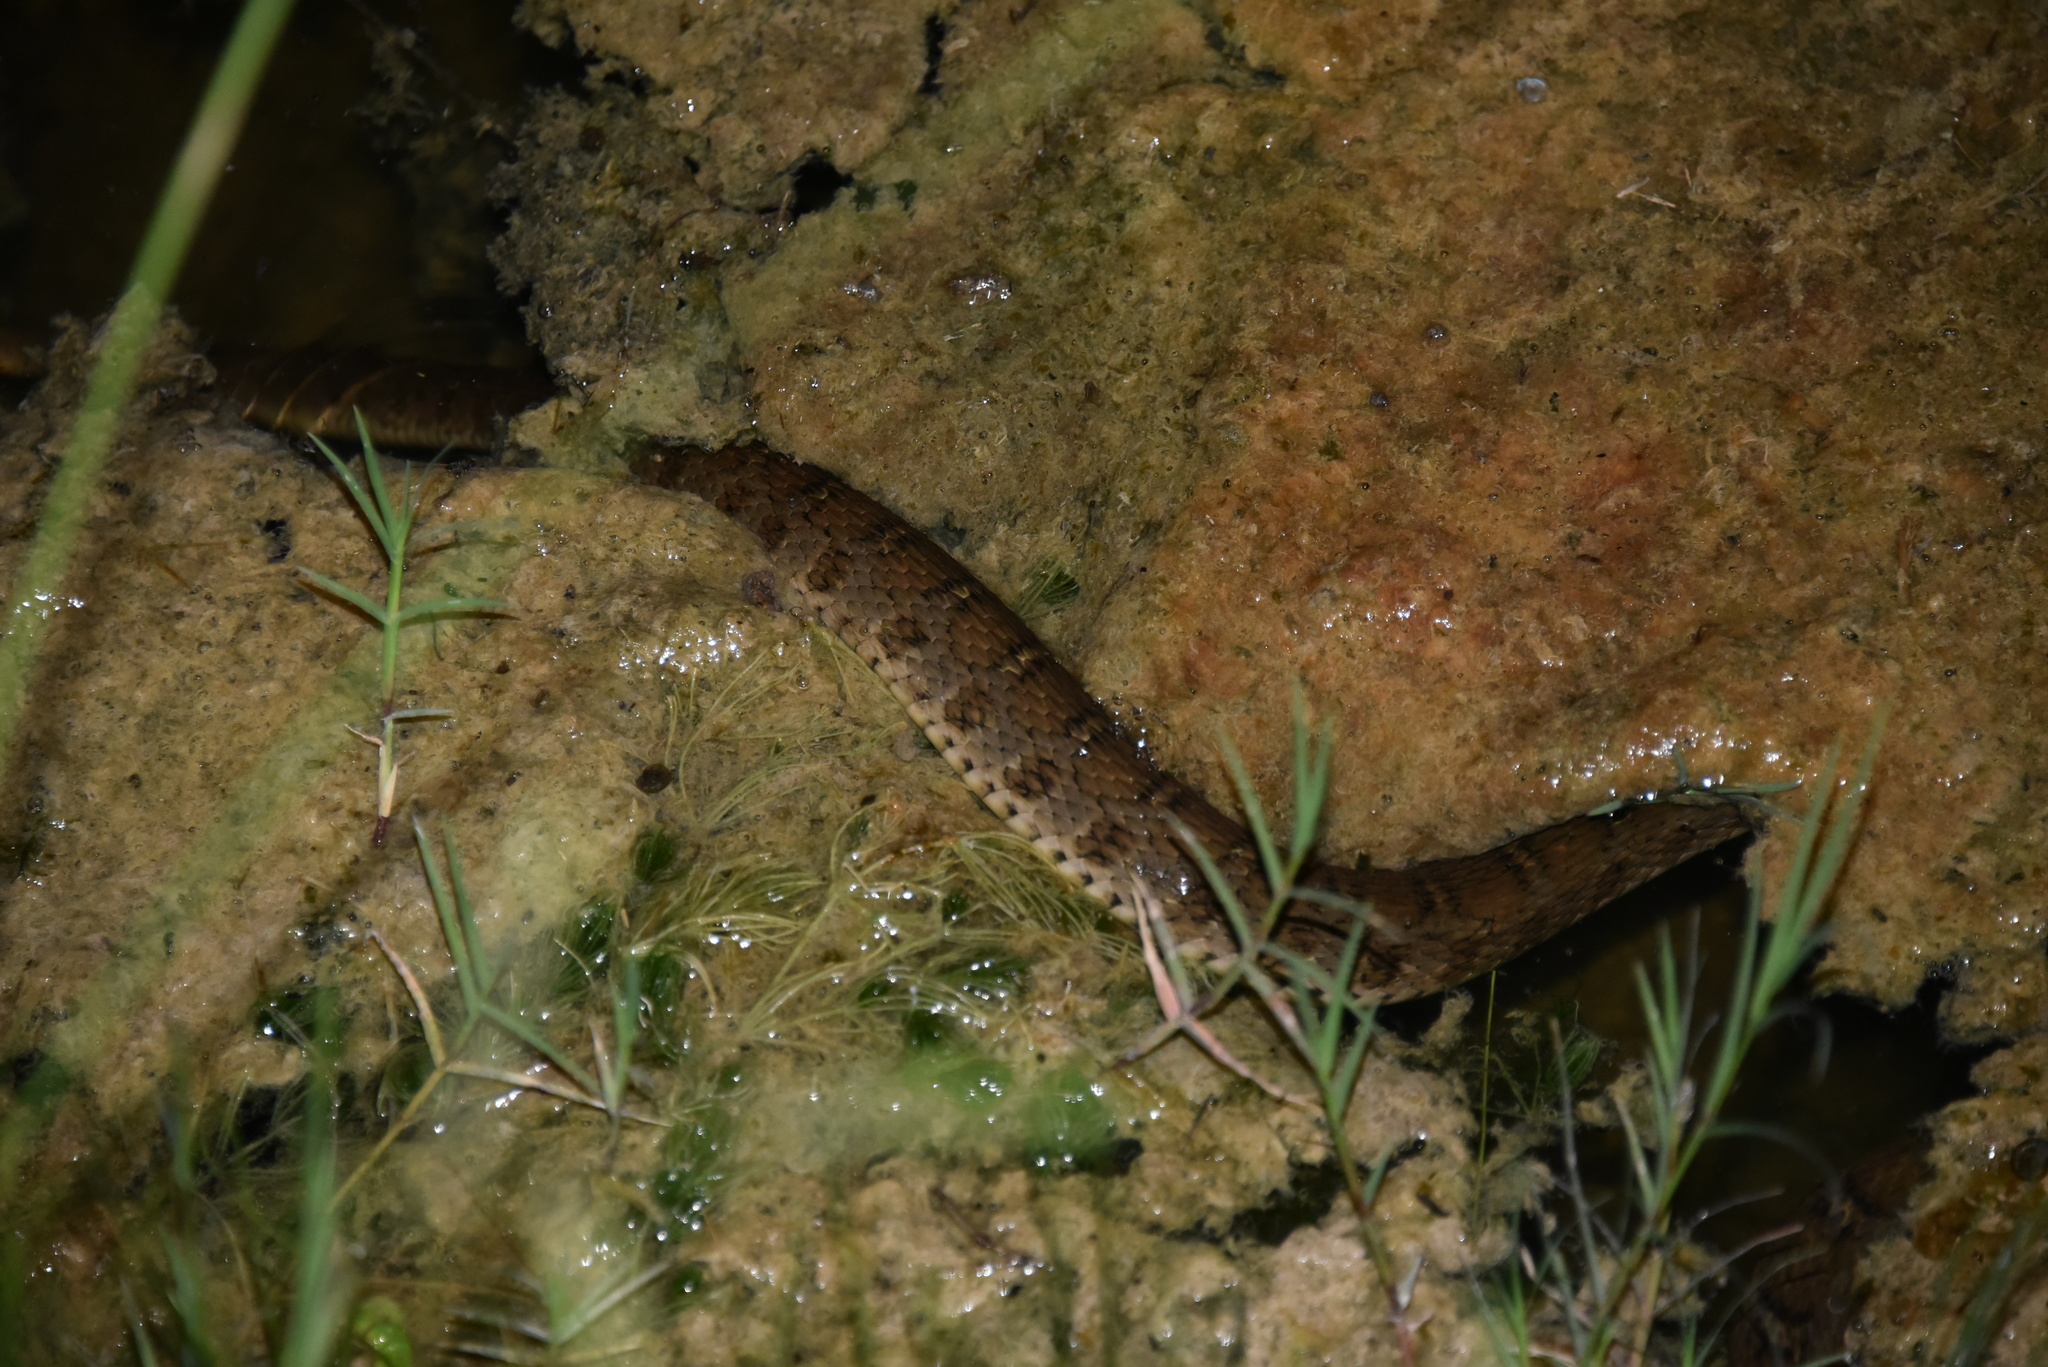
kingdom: Animalia
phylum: Chordata
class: Squamata
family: Colubridae
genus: Nerodia
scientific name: Nerodia erythrogaster
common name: Plainbelly water snake
